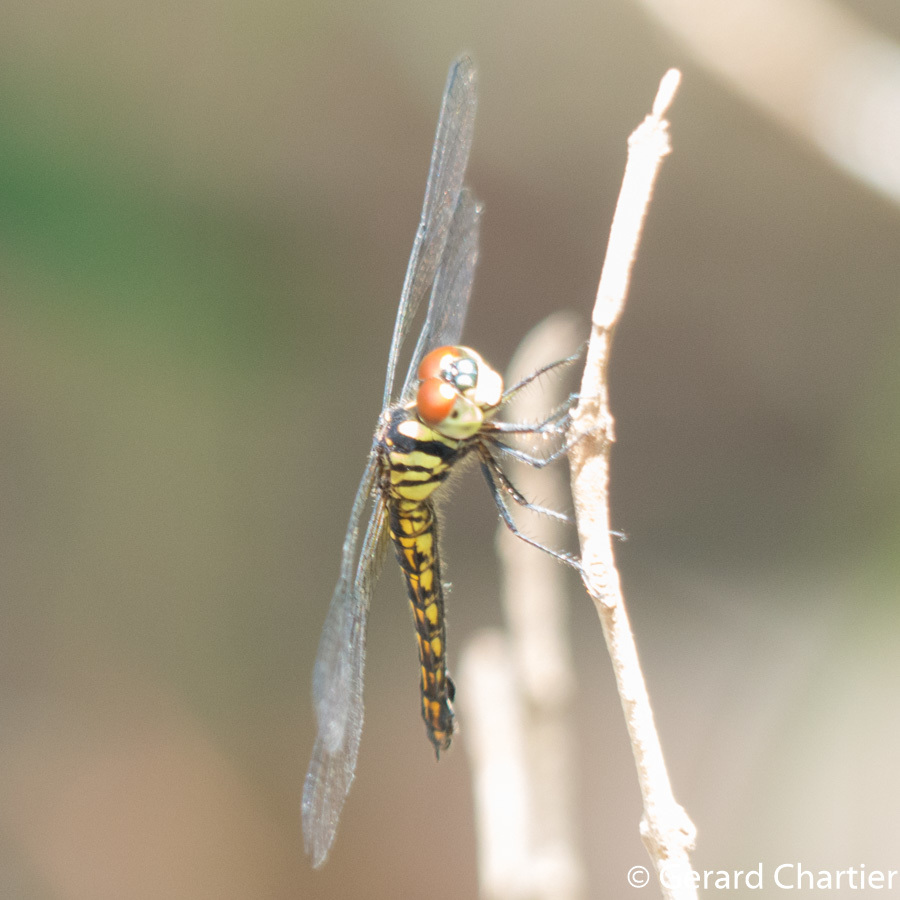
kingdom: Animalia
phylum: Arthropoda
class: Insecta
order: Odonata
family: Libellulidae
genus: Lyriothemis
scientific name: Lyriothemis mortoni
